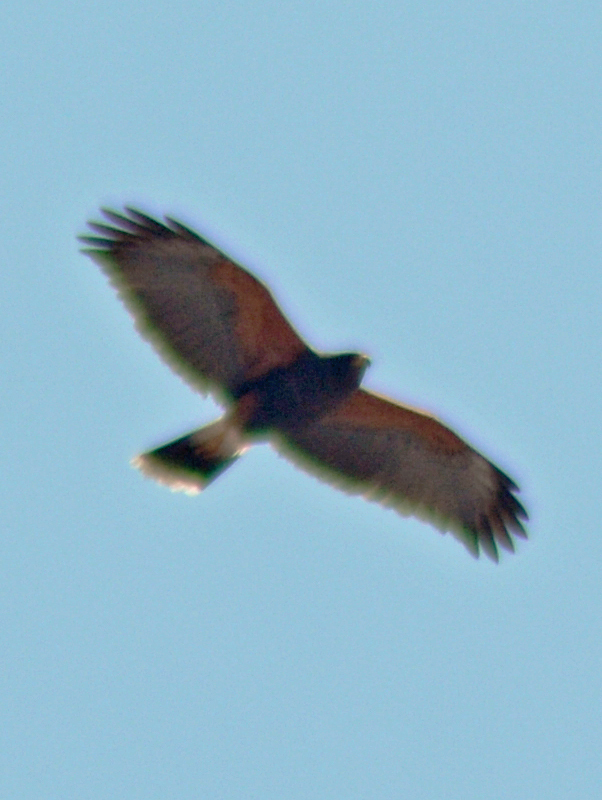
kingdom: Animalia
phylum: Chordata
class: Aves
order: Accipitriformes
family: Accipitridae
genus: Parabuteo
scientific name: Parabuteo unicinctus
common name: Harris's hawk
